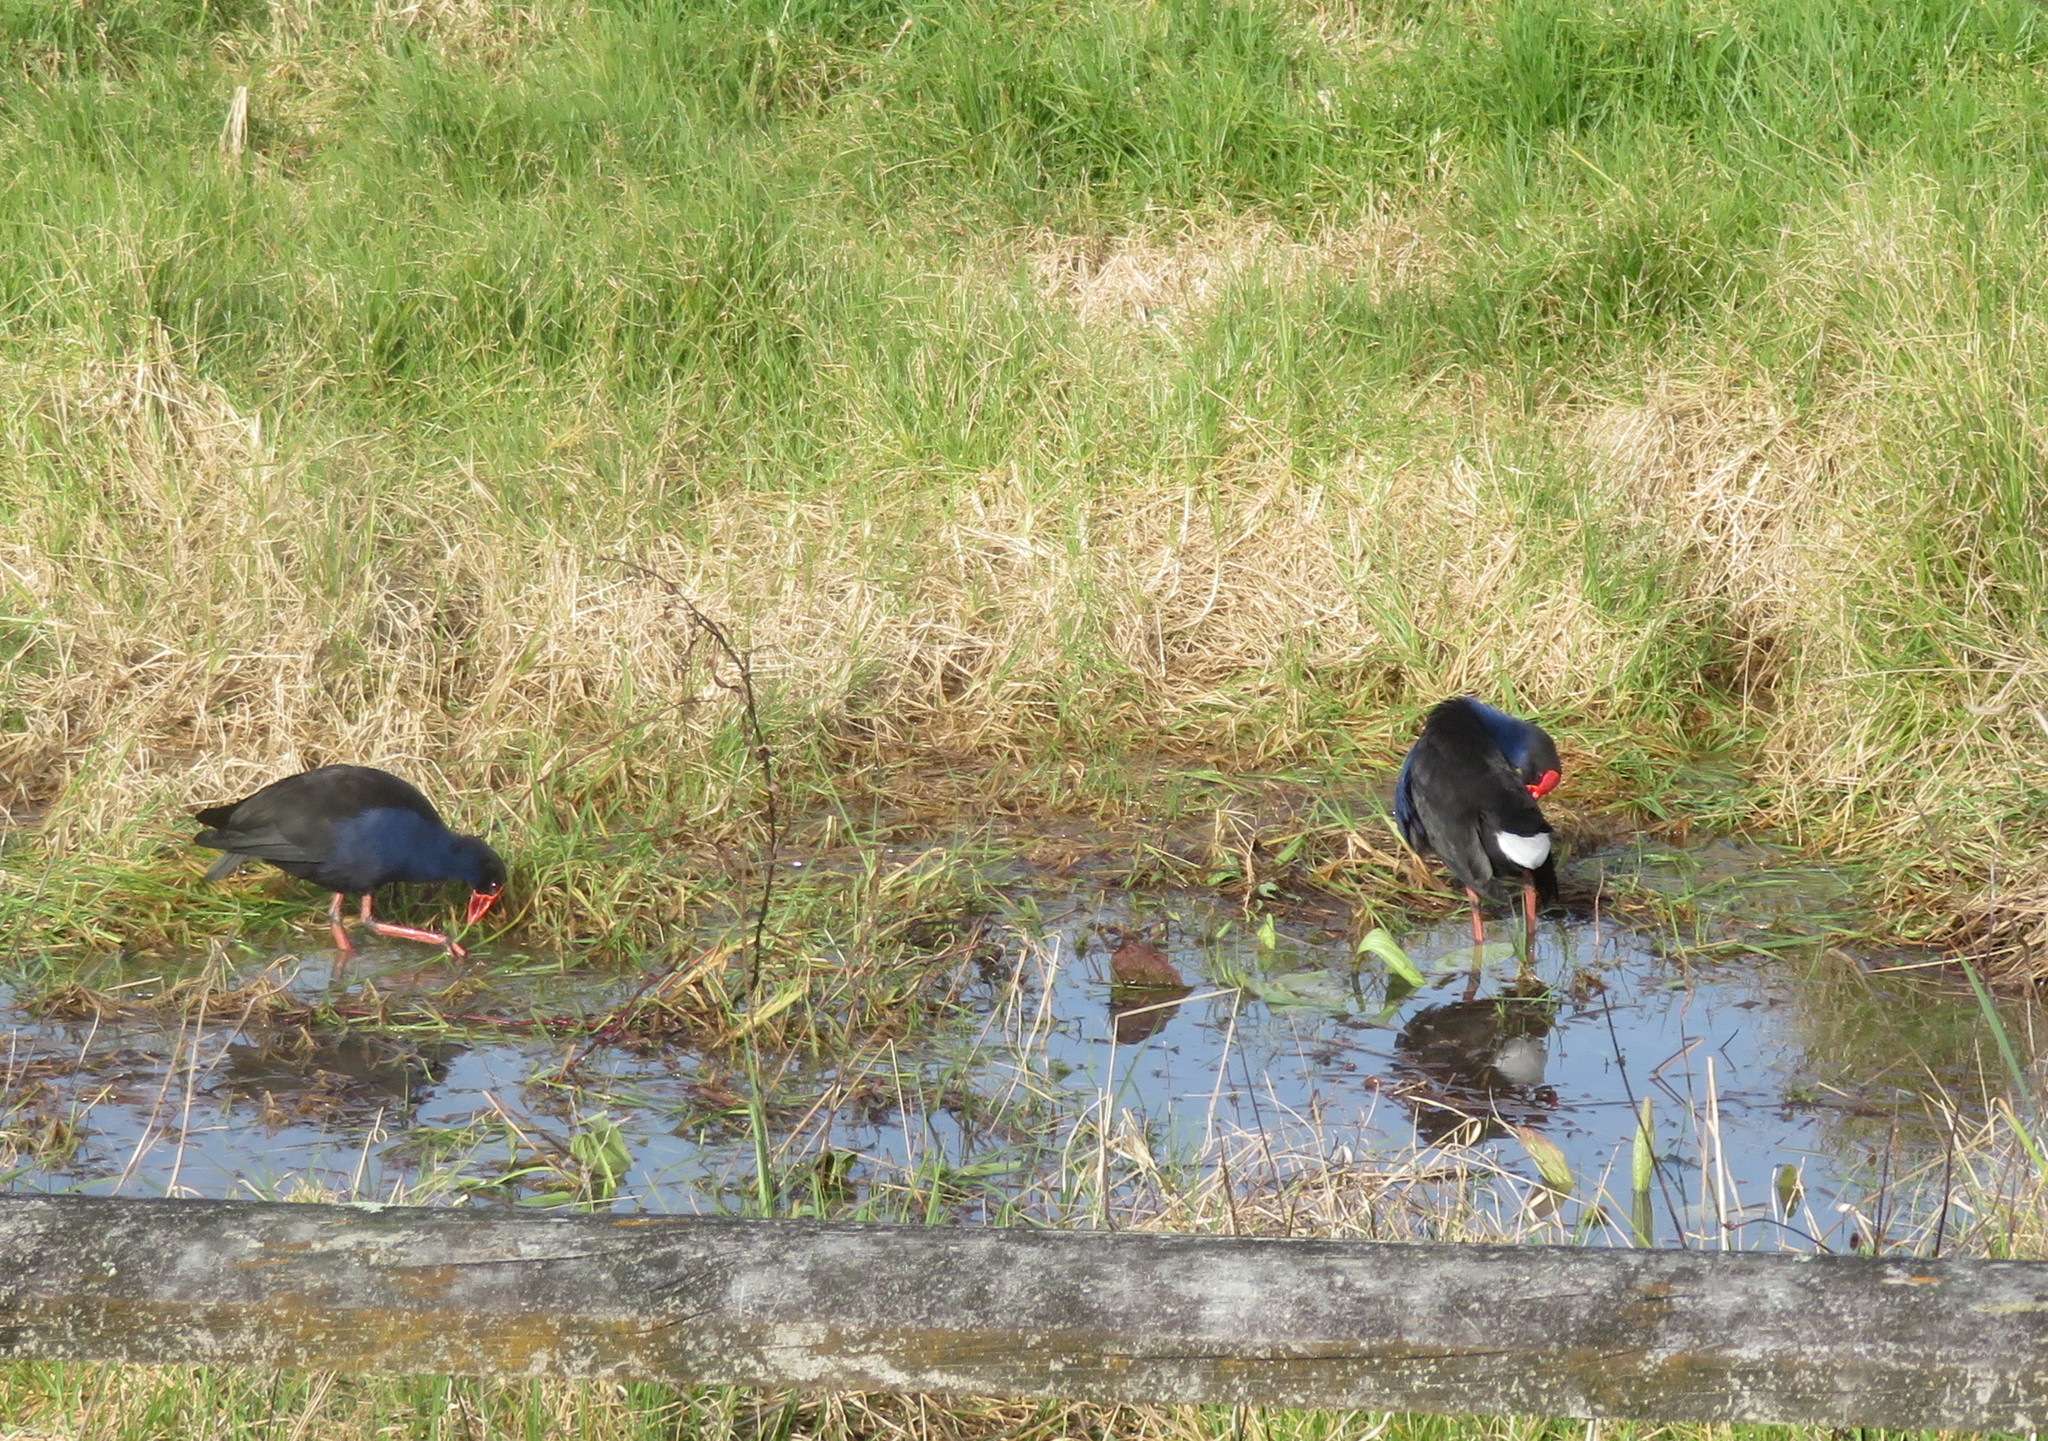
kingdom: Animalia
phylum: Chordata
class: Aves
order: Gruiformes
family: Rallidae
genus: Porphyrio
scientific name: Porphyrio melanotus
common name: Australasian swamphen
